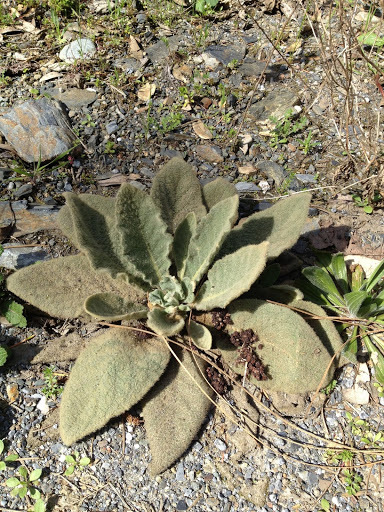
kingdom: Plantae
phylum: Tracheophyta
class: Magnoliopsida
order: Lamiales
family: Scrophulariaceae
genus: Verbascum
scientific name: Verbascum thapsus
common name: Common mullein
